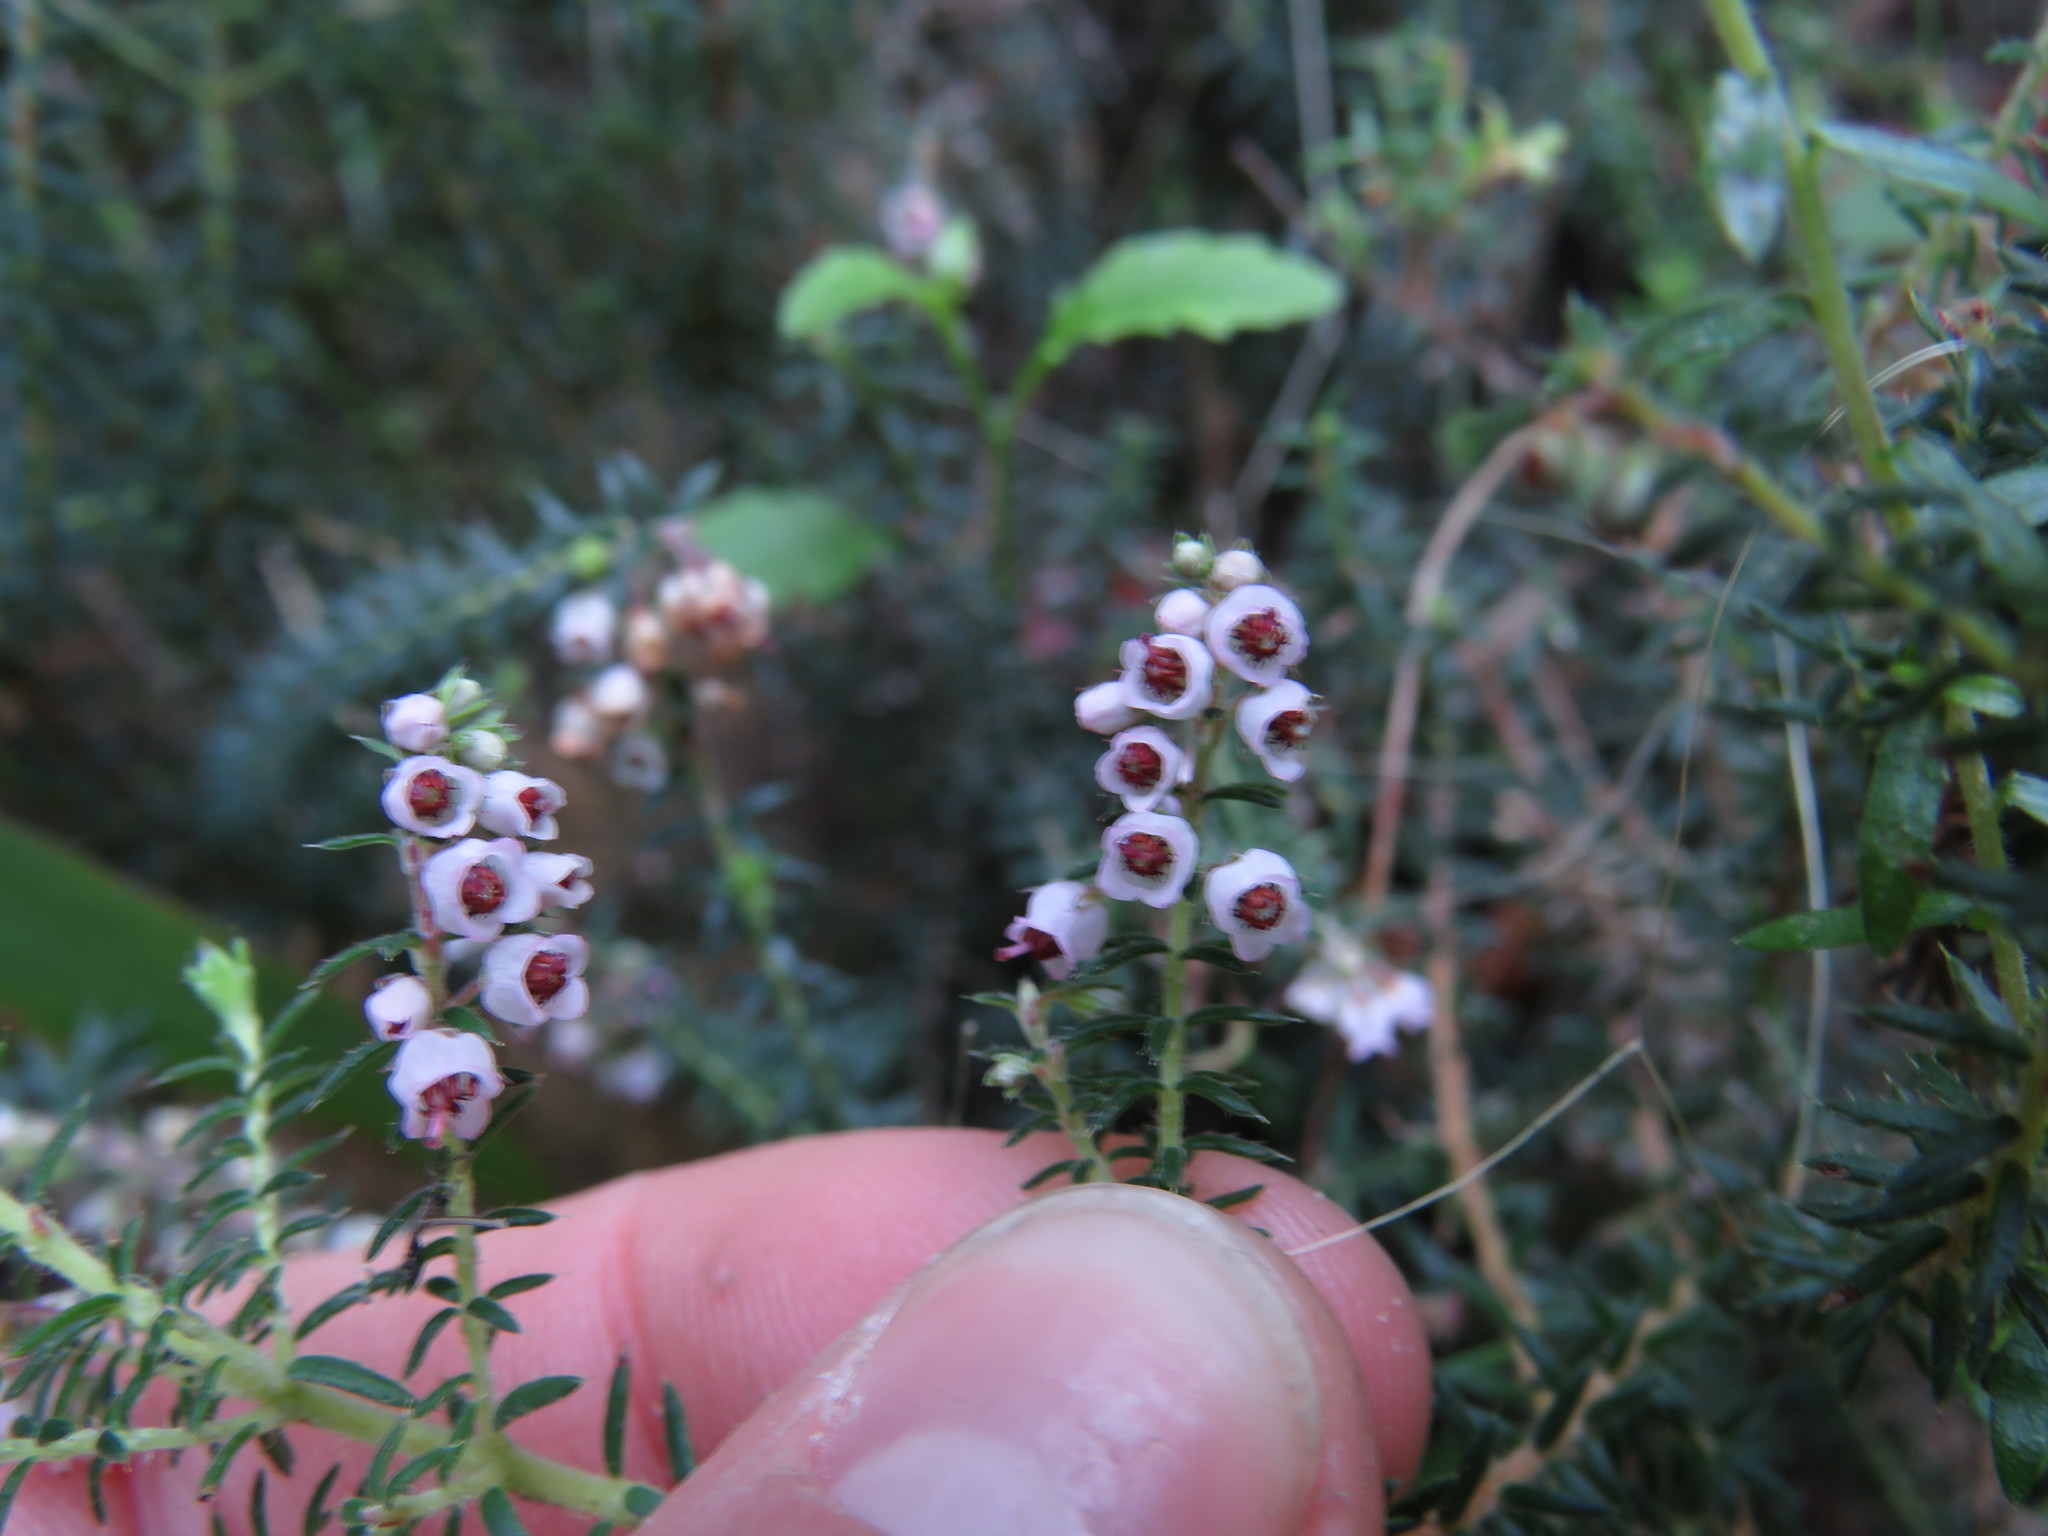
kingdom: Plantae
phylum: Tracheophyta
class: Magnoliopsida
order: Ericales
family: Ericaceae
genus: Erica
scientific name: Erica strigosa
